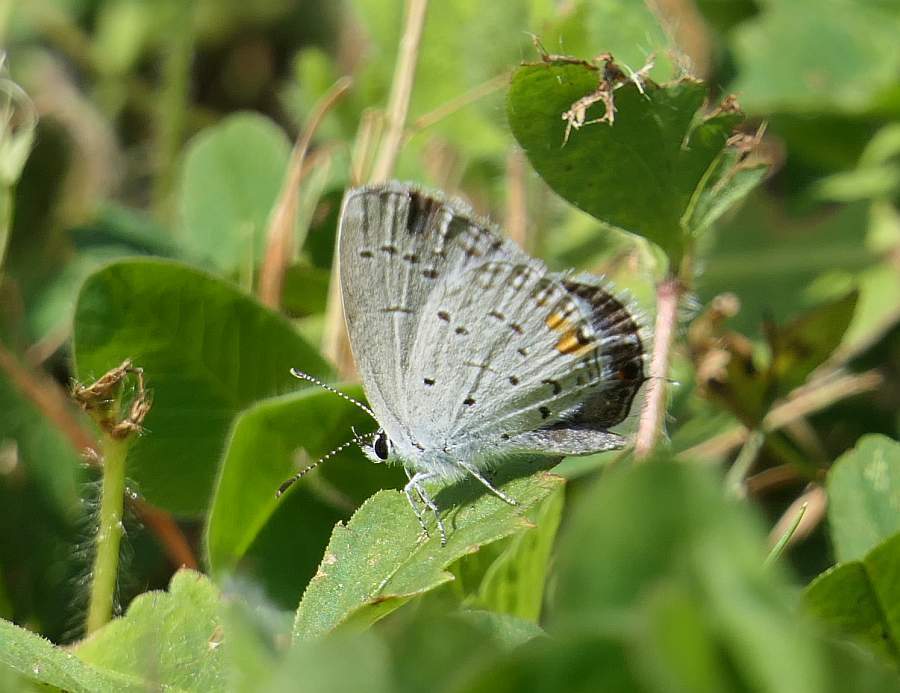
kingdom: Animalia
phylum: Arthropoda
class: Insecta
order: Lepidoptera
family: Lycaenidae
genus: Elkalyce
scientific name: Elkalyce comyntas
